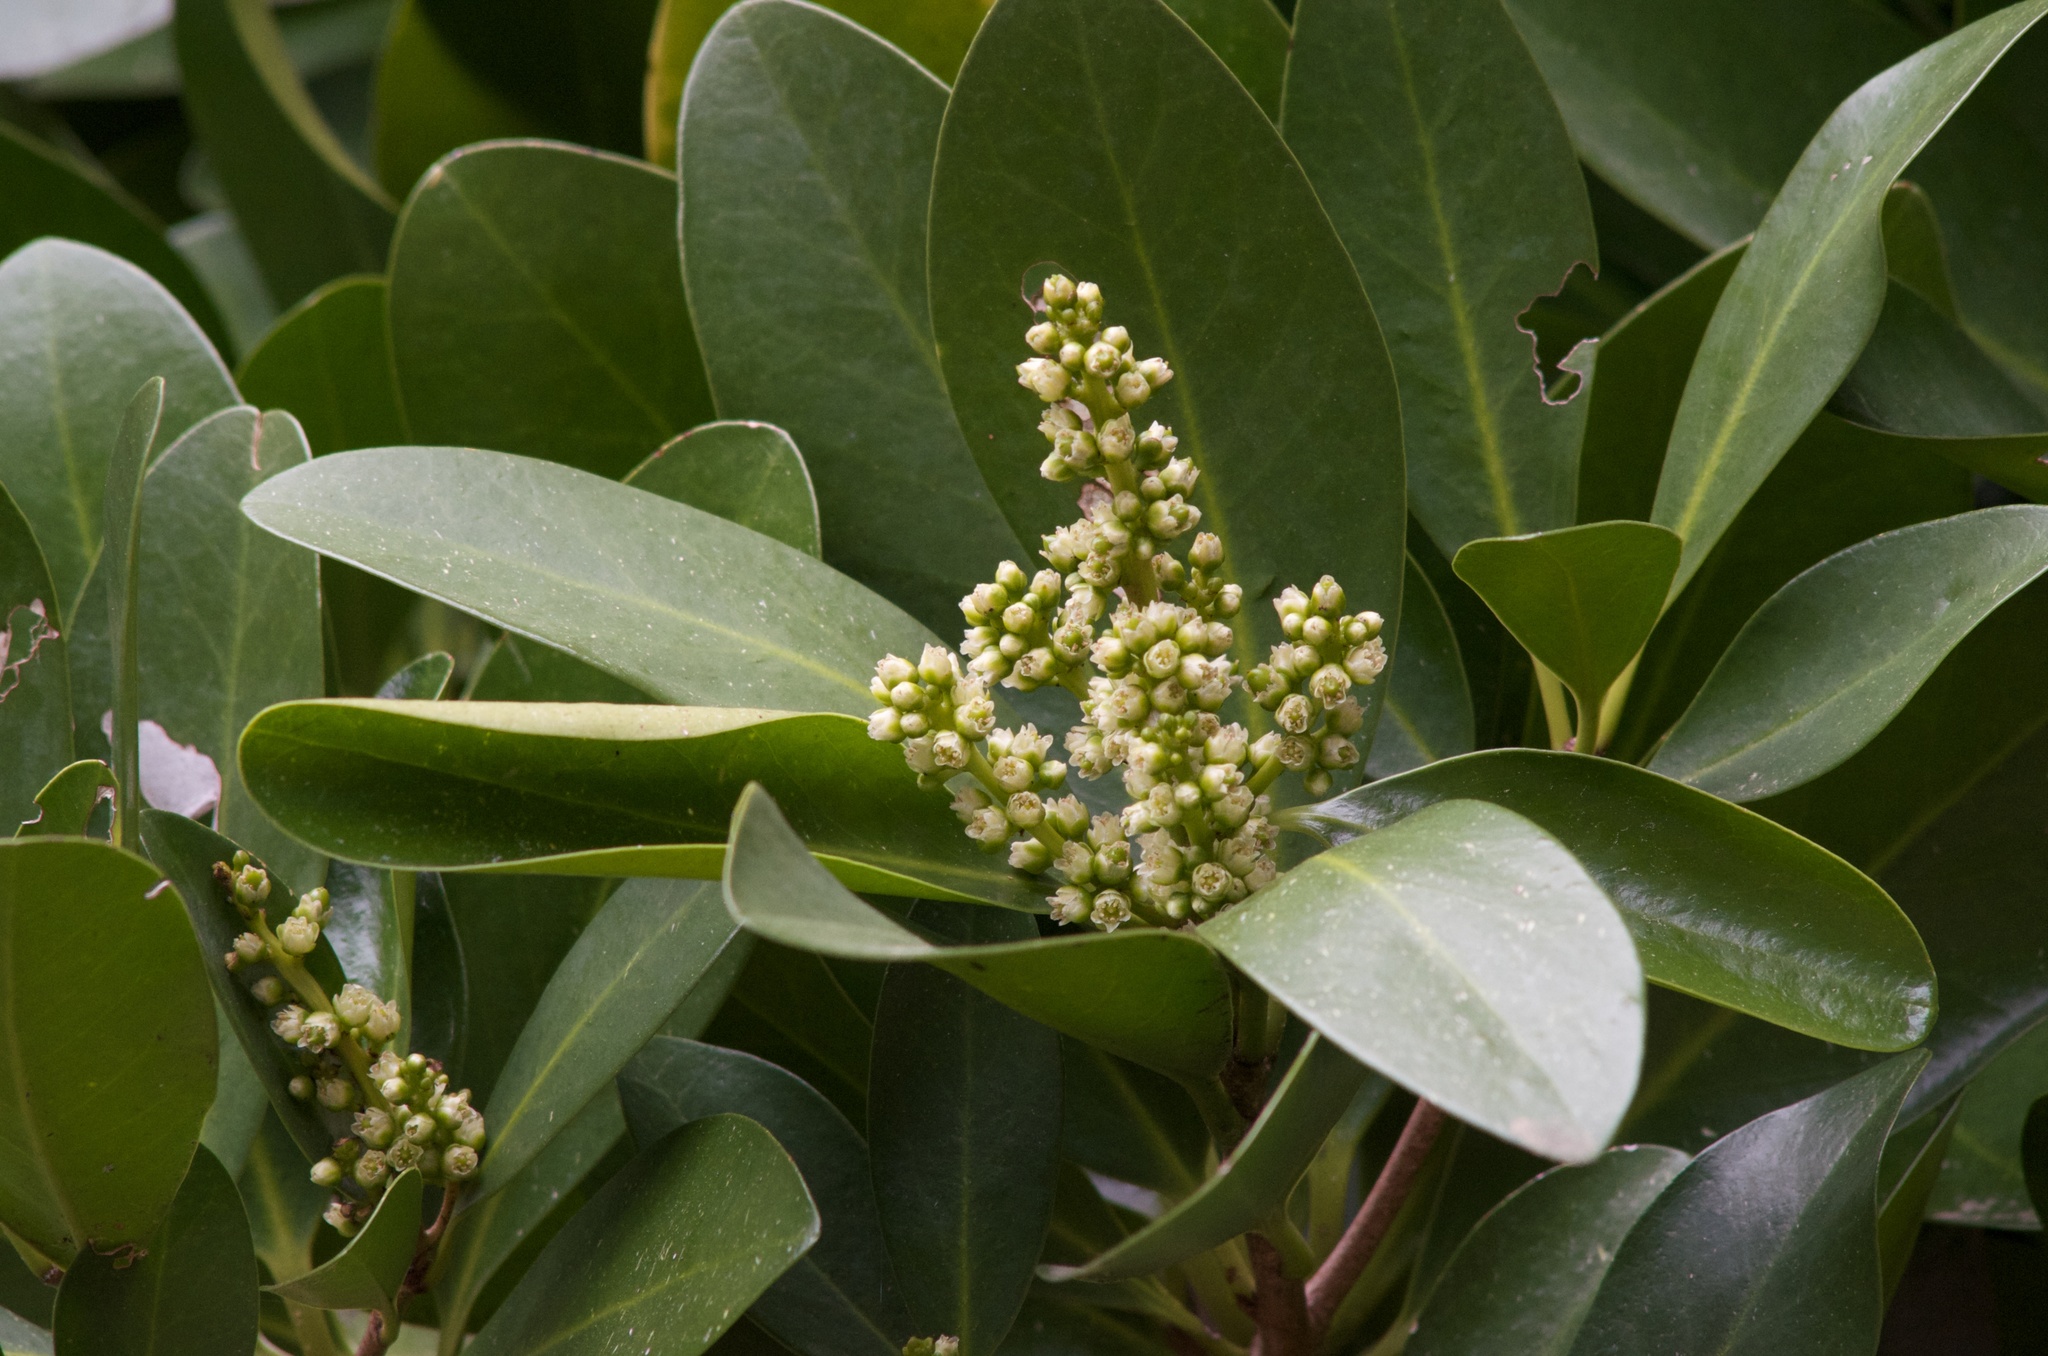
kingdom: Plantae
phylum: Tracheophyta
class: Magnoliopsida
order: Cucurbitales
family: Corynocarpaceae
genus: Corynocarpus
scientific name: Corynocarpus laevigatus
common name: New zealand laurel
